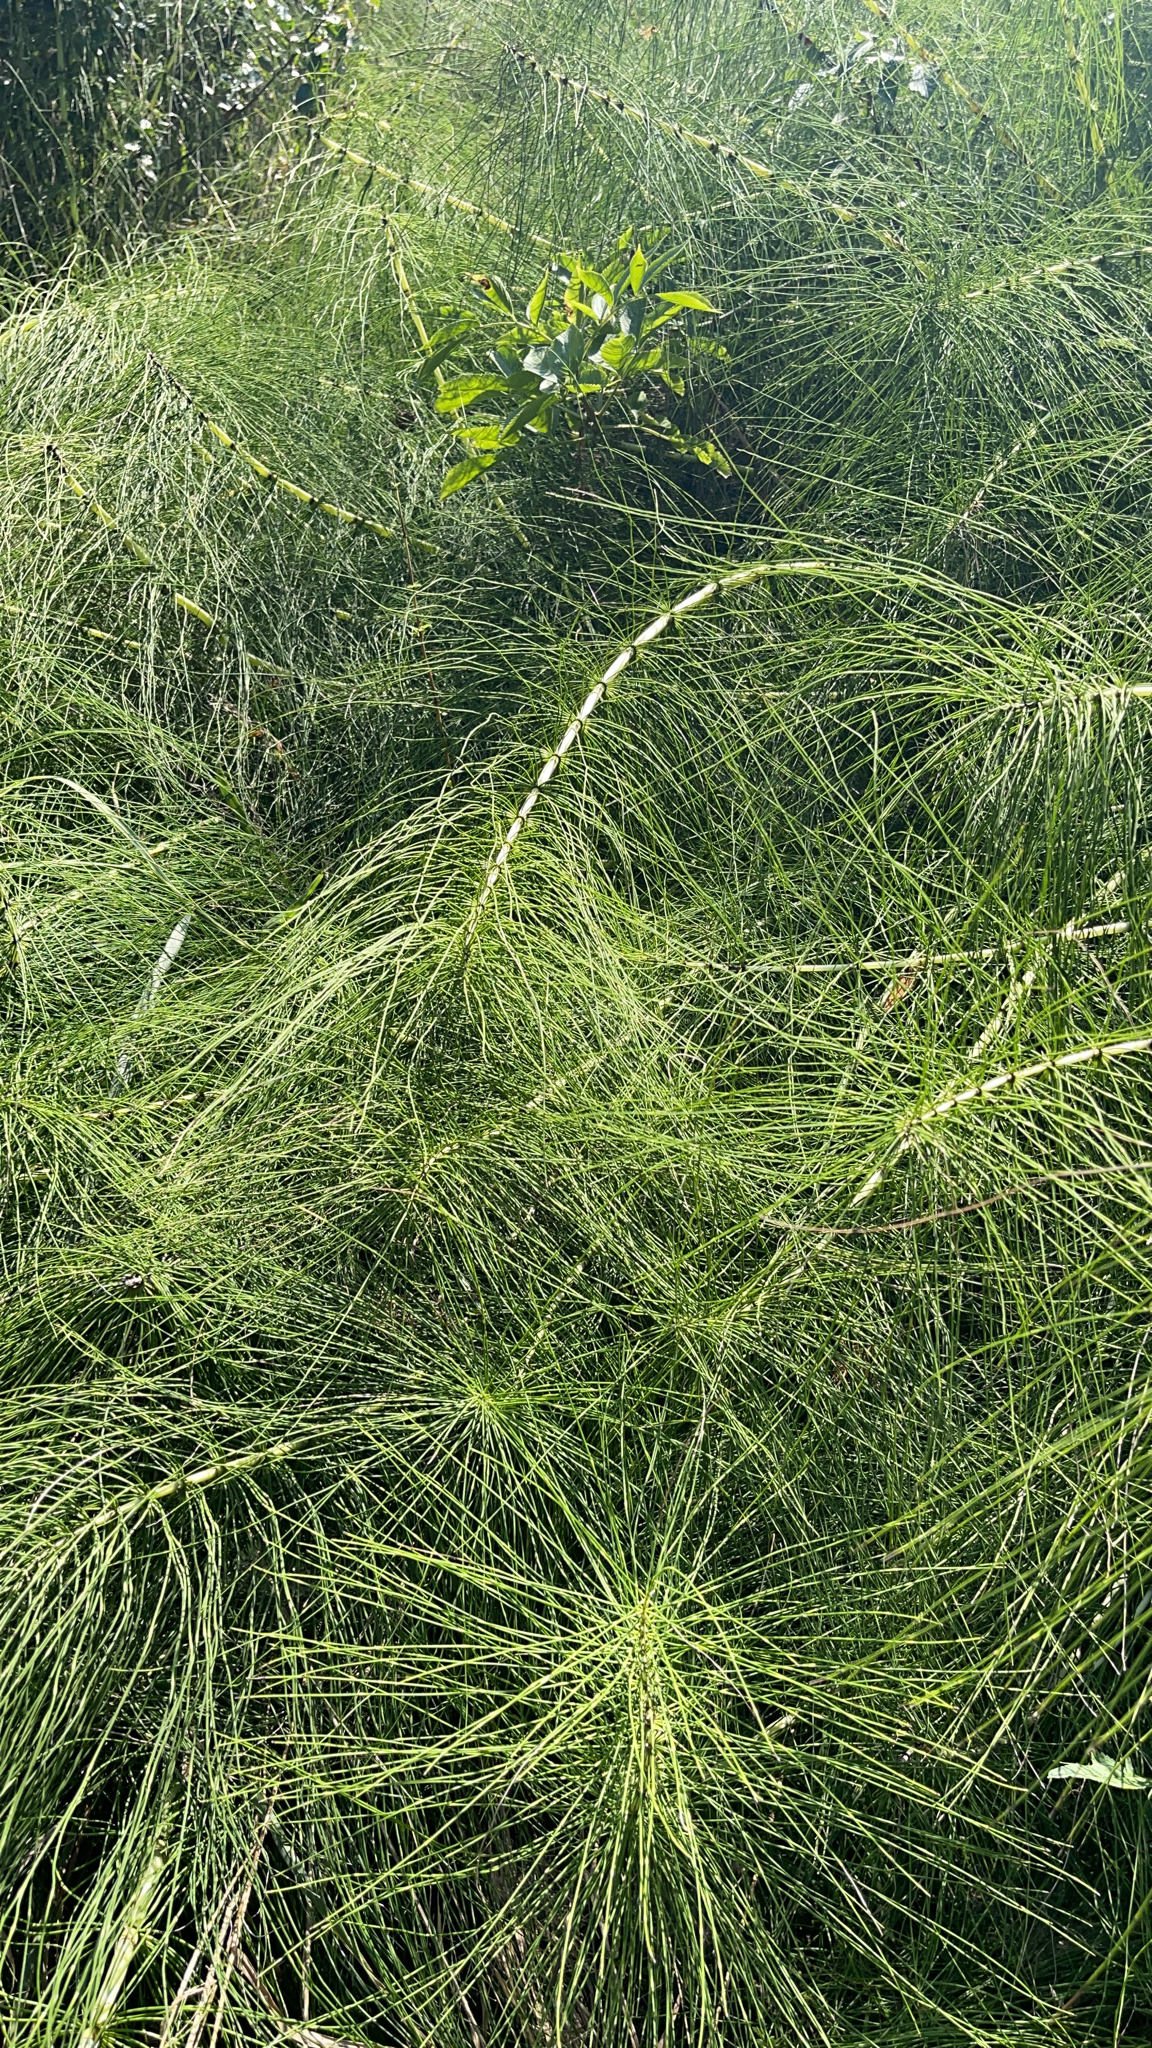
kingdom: Plantae
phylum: Tracheophyta
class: Polypodiopsida
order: Equisetales
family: Equisetaceae
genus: Equisetum
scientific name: Equisetum telmateia
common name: Great horsetail
